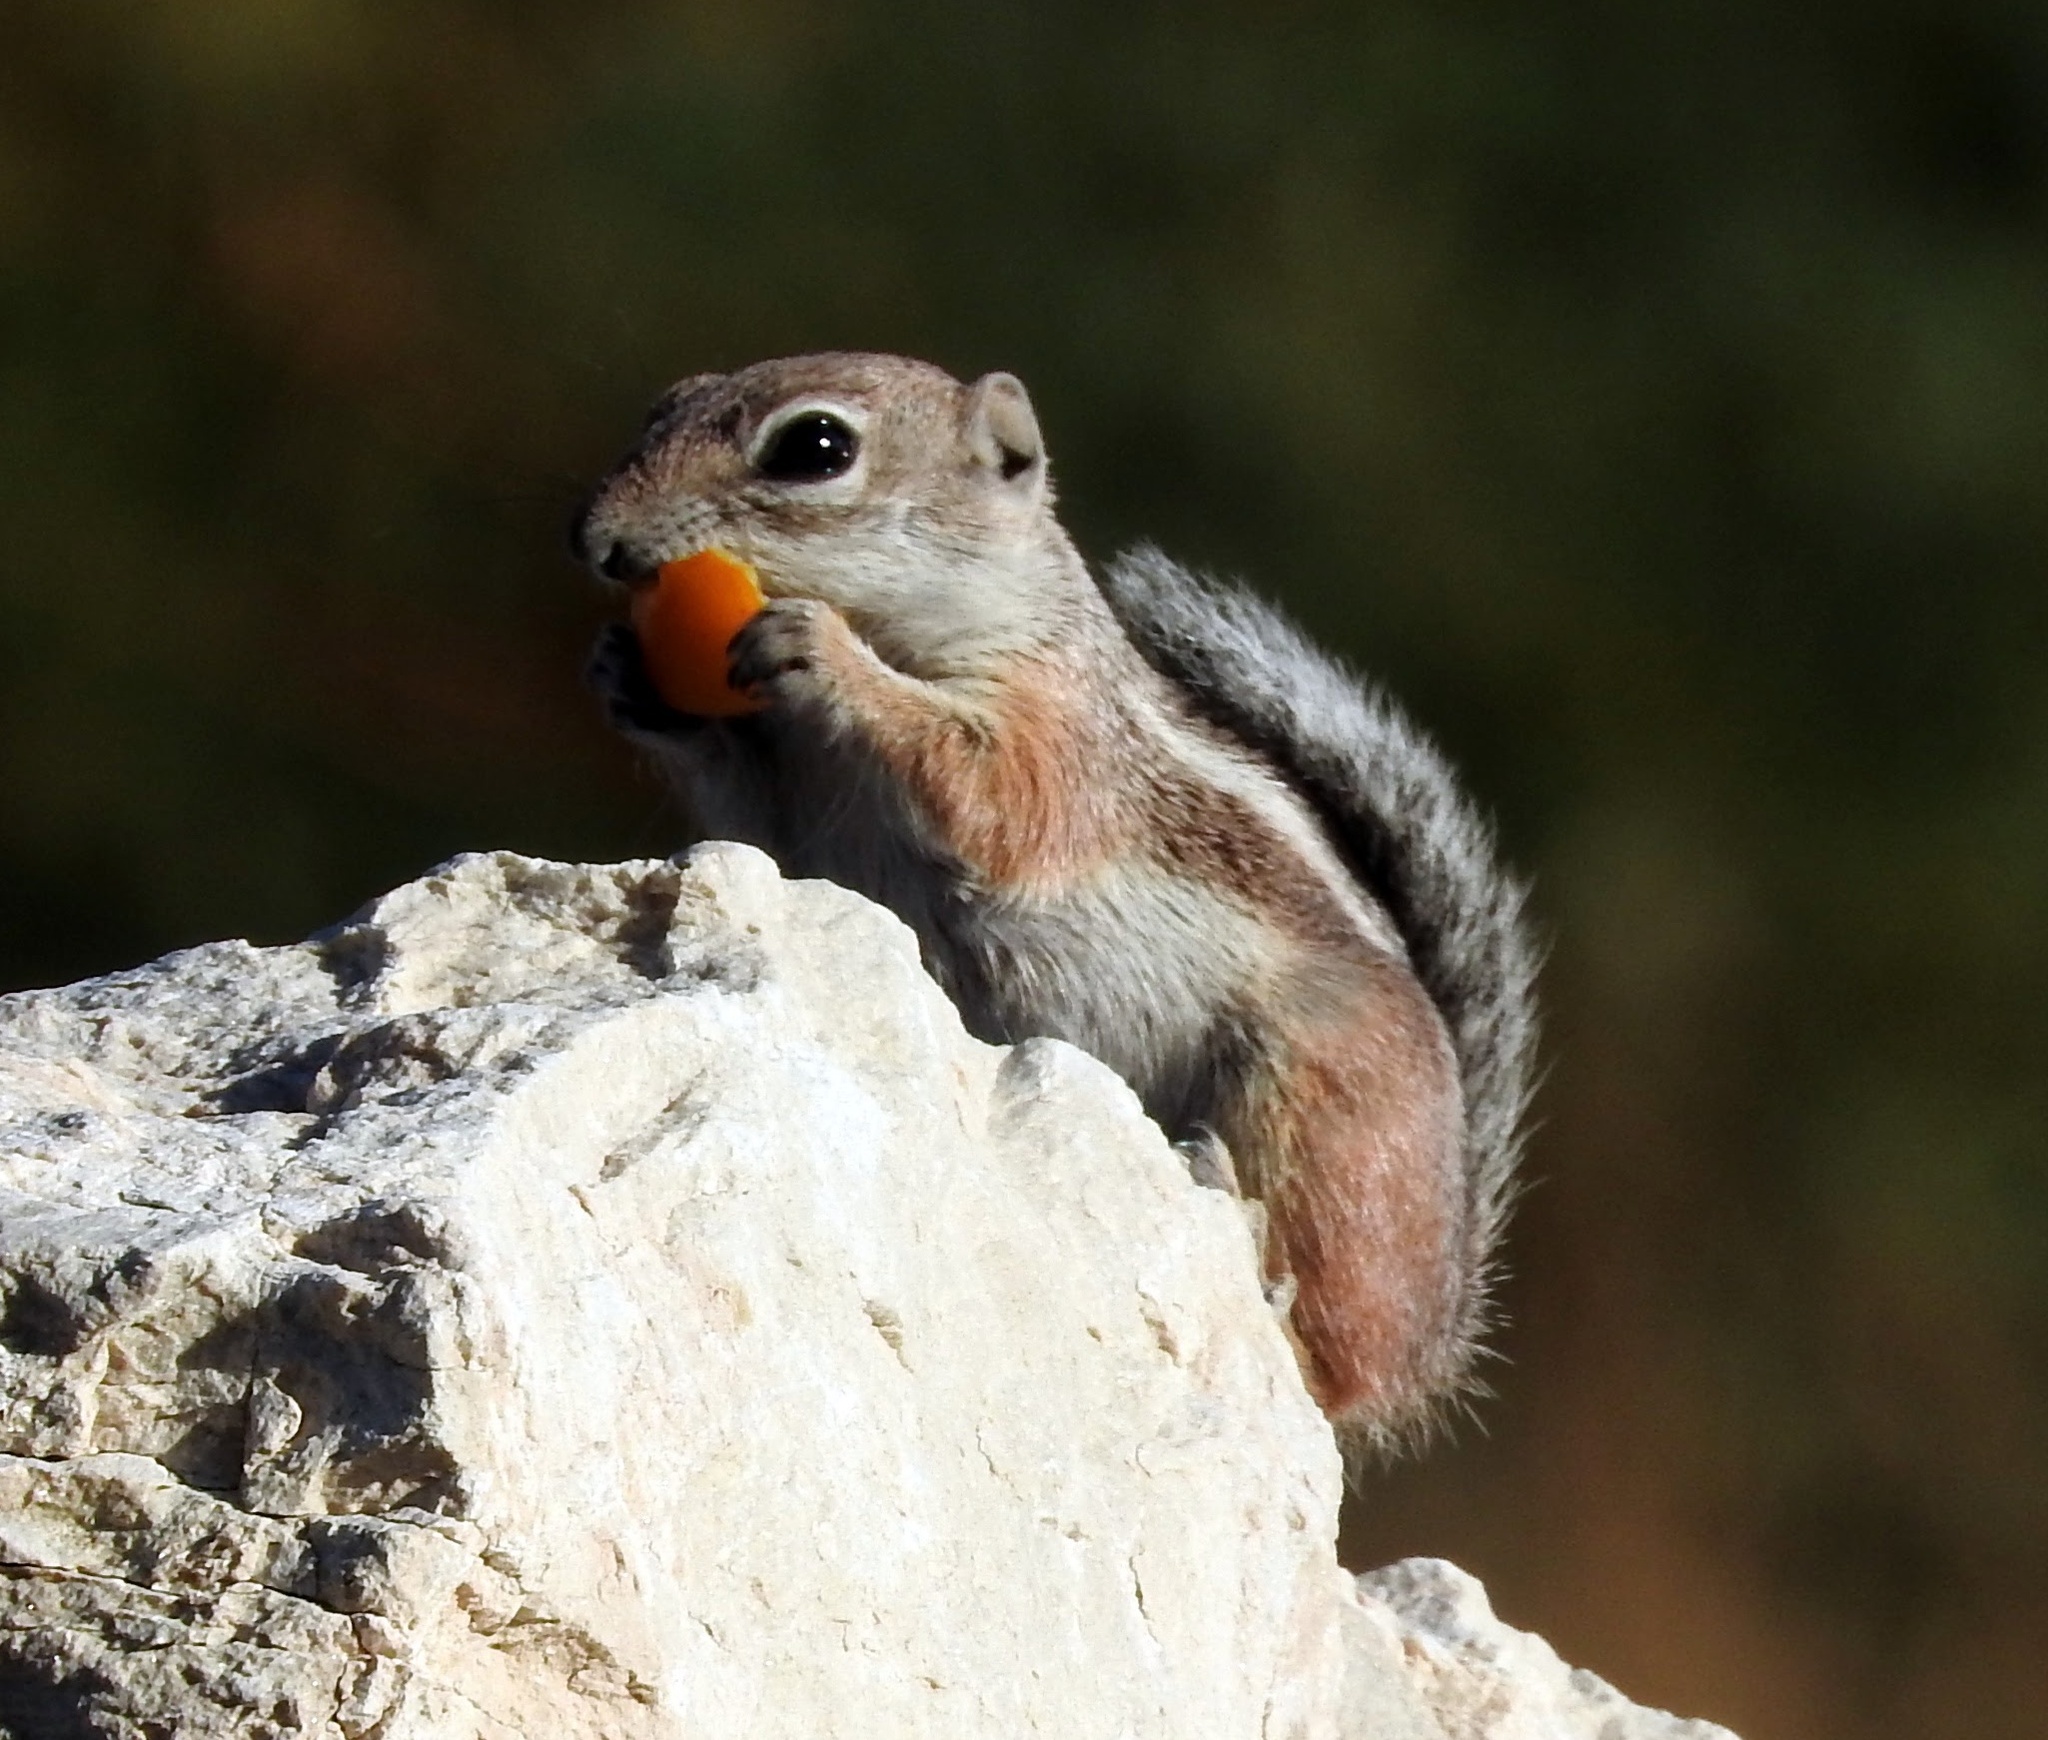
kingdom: Animalia
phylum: Chordata
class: Mammalia
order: Rodentia
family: Sciuridae
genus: Ammospermophilus
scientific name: Ammospermophilus leucurus
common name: White-tailed antelope squirrel
